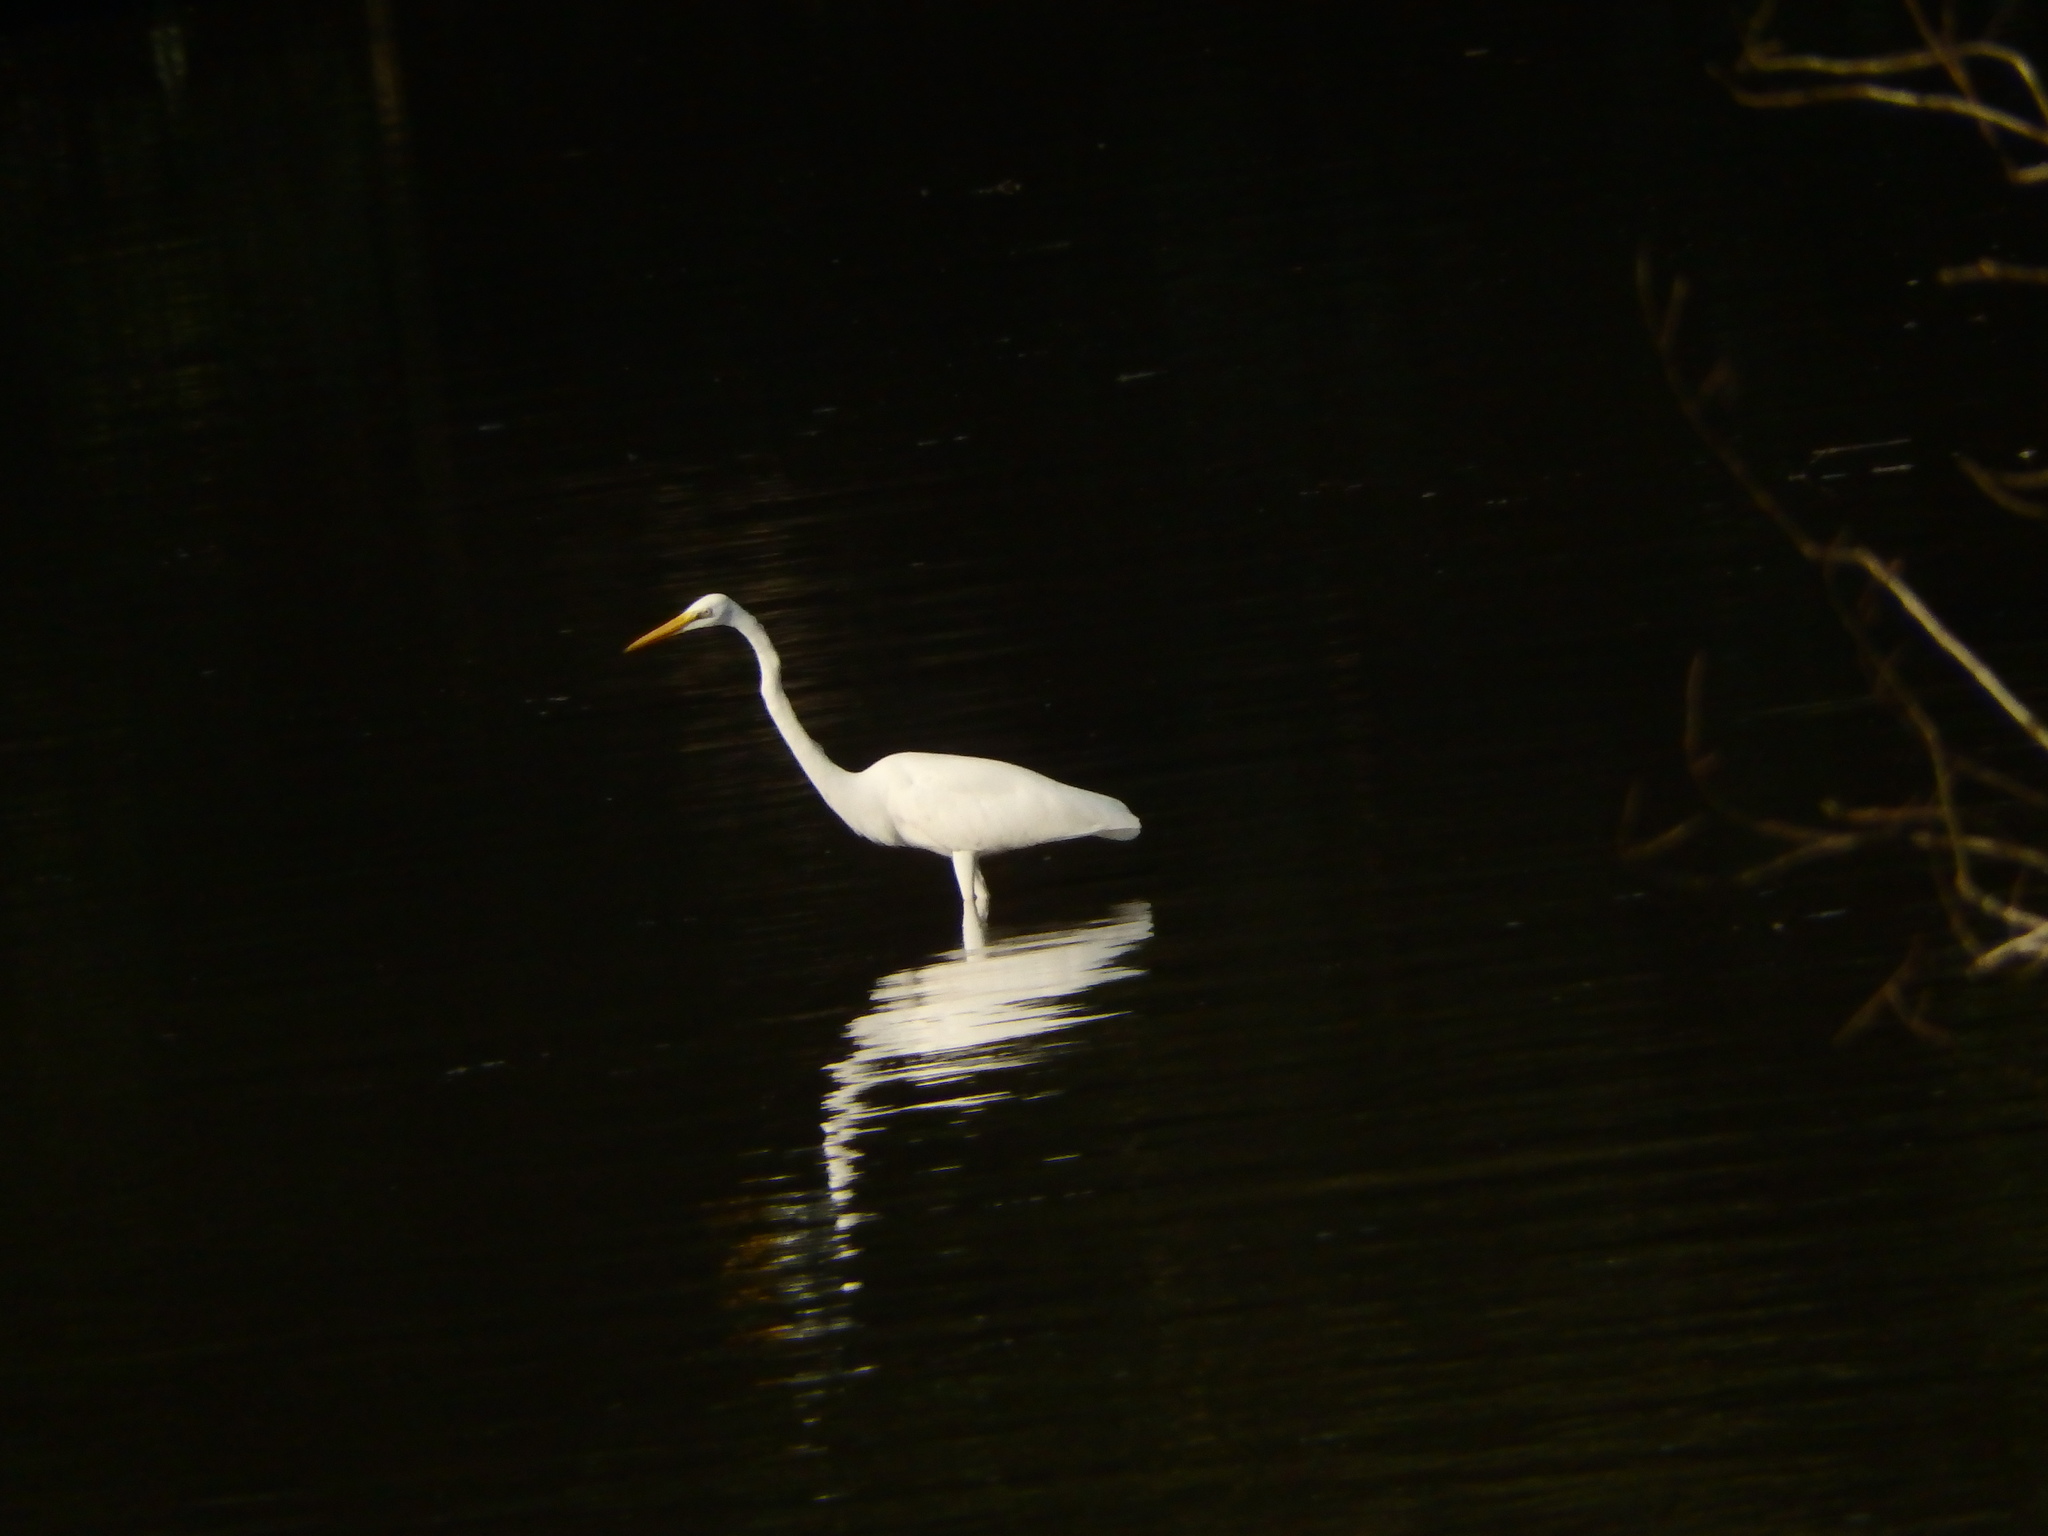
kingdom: Animalia
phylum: Chordata
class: Aves
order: Pelecaniformes
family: Ardeidae
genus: Ardea
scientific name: Ardea alba
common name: Great egret
